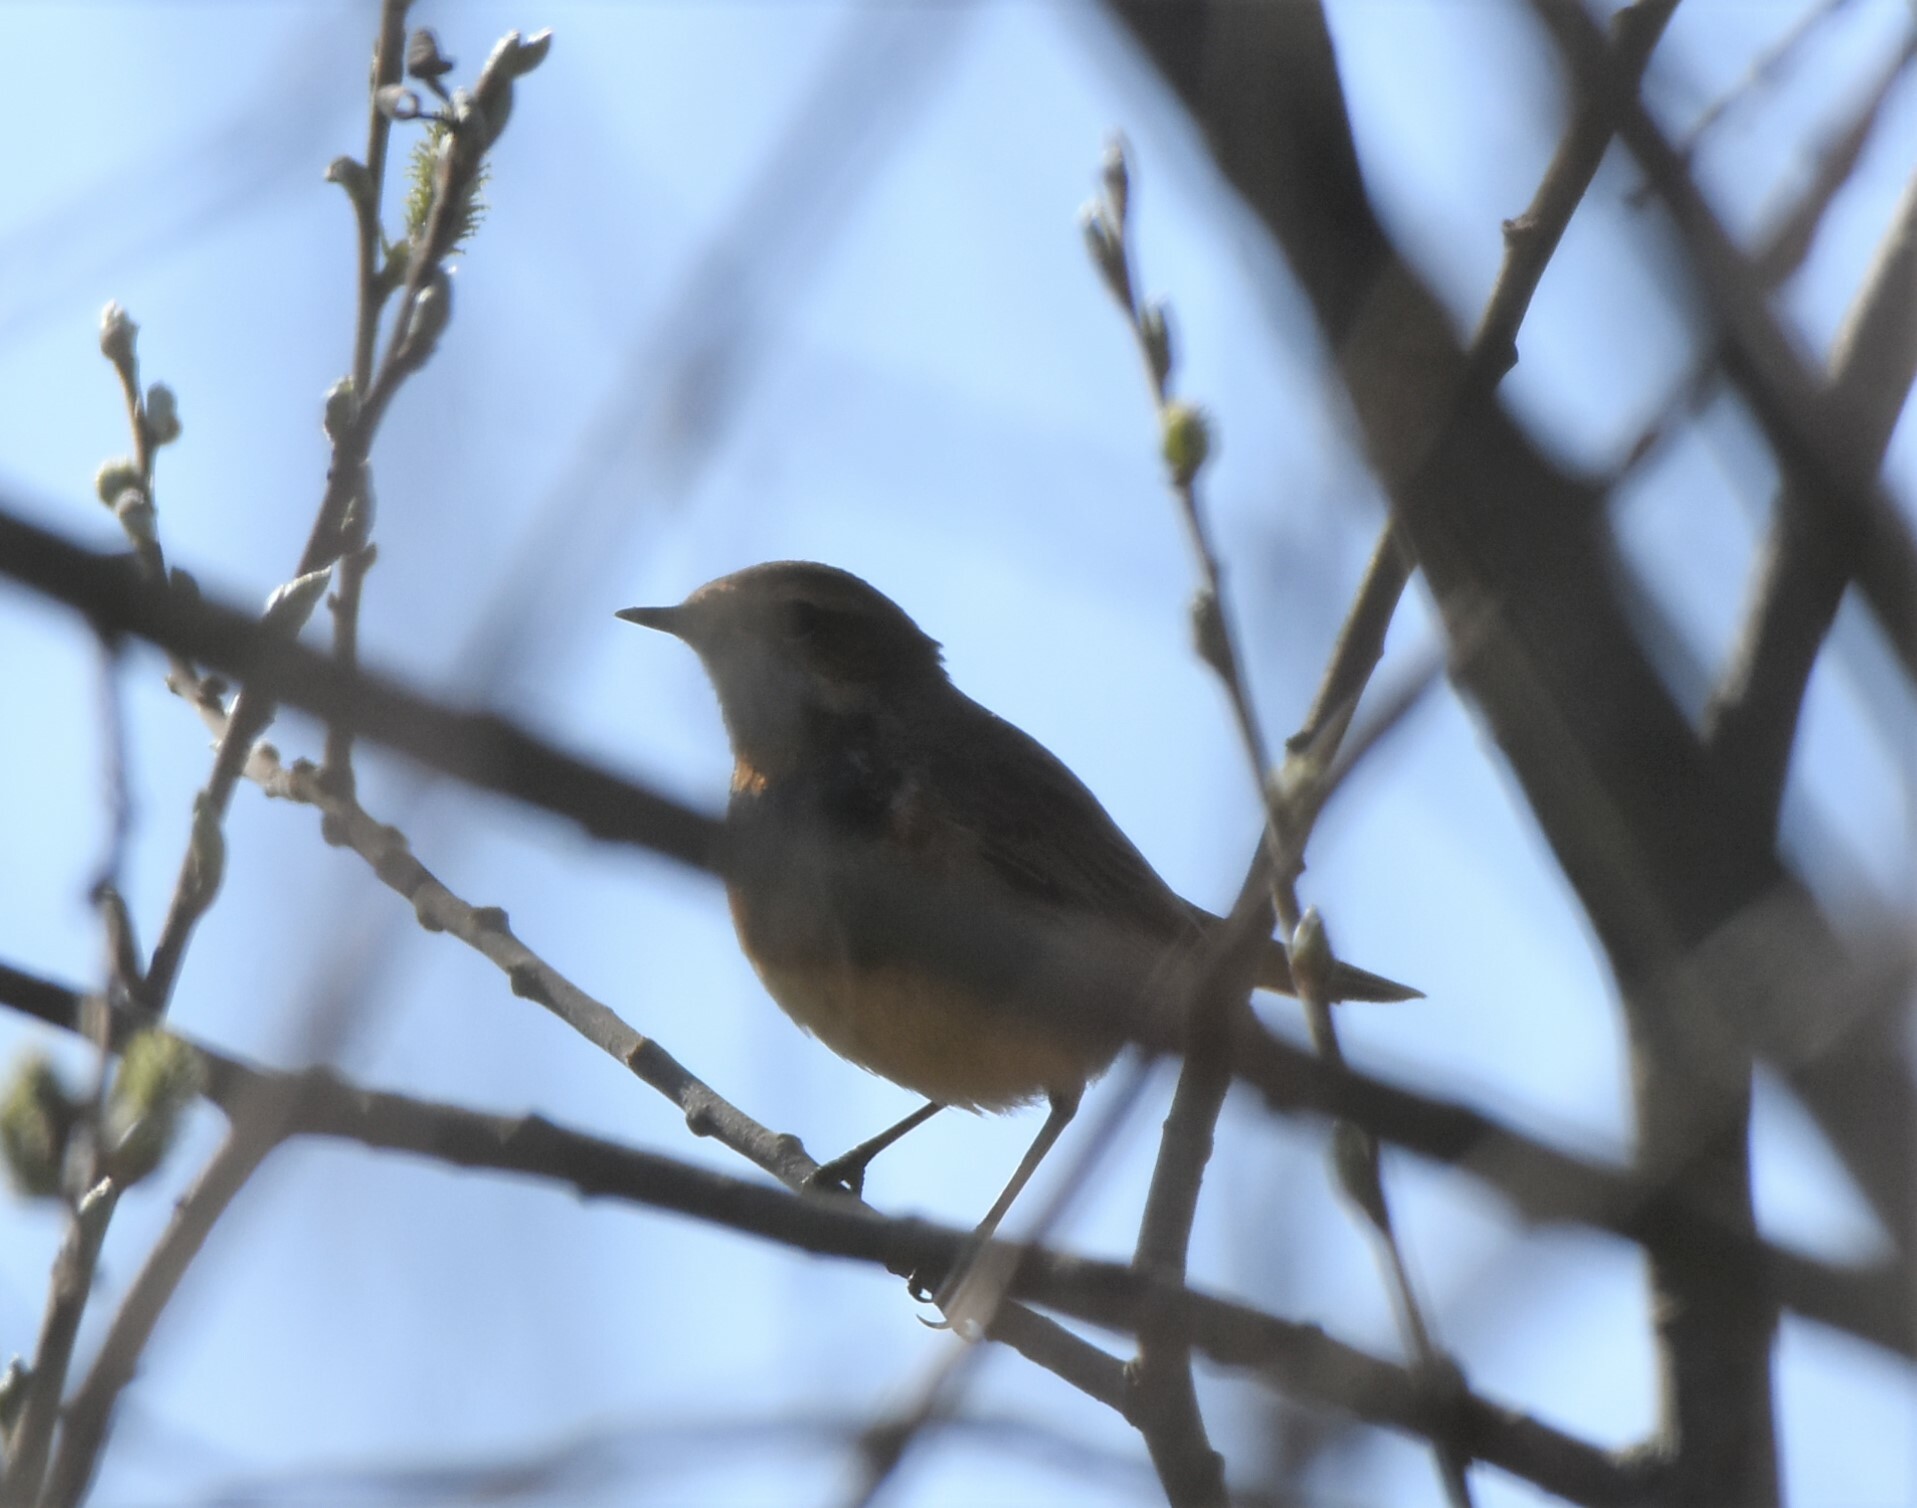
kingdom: Animalia
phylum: Chordata
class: Aves
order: Passeriformes
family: Muscicapidae
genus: Luscinia
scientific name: Luscinia svecica
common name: Bluethroat
